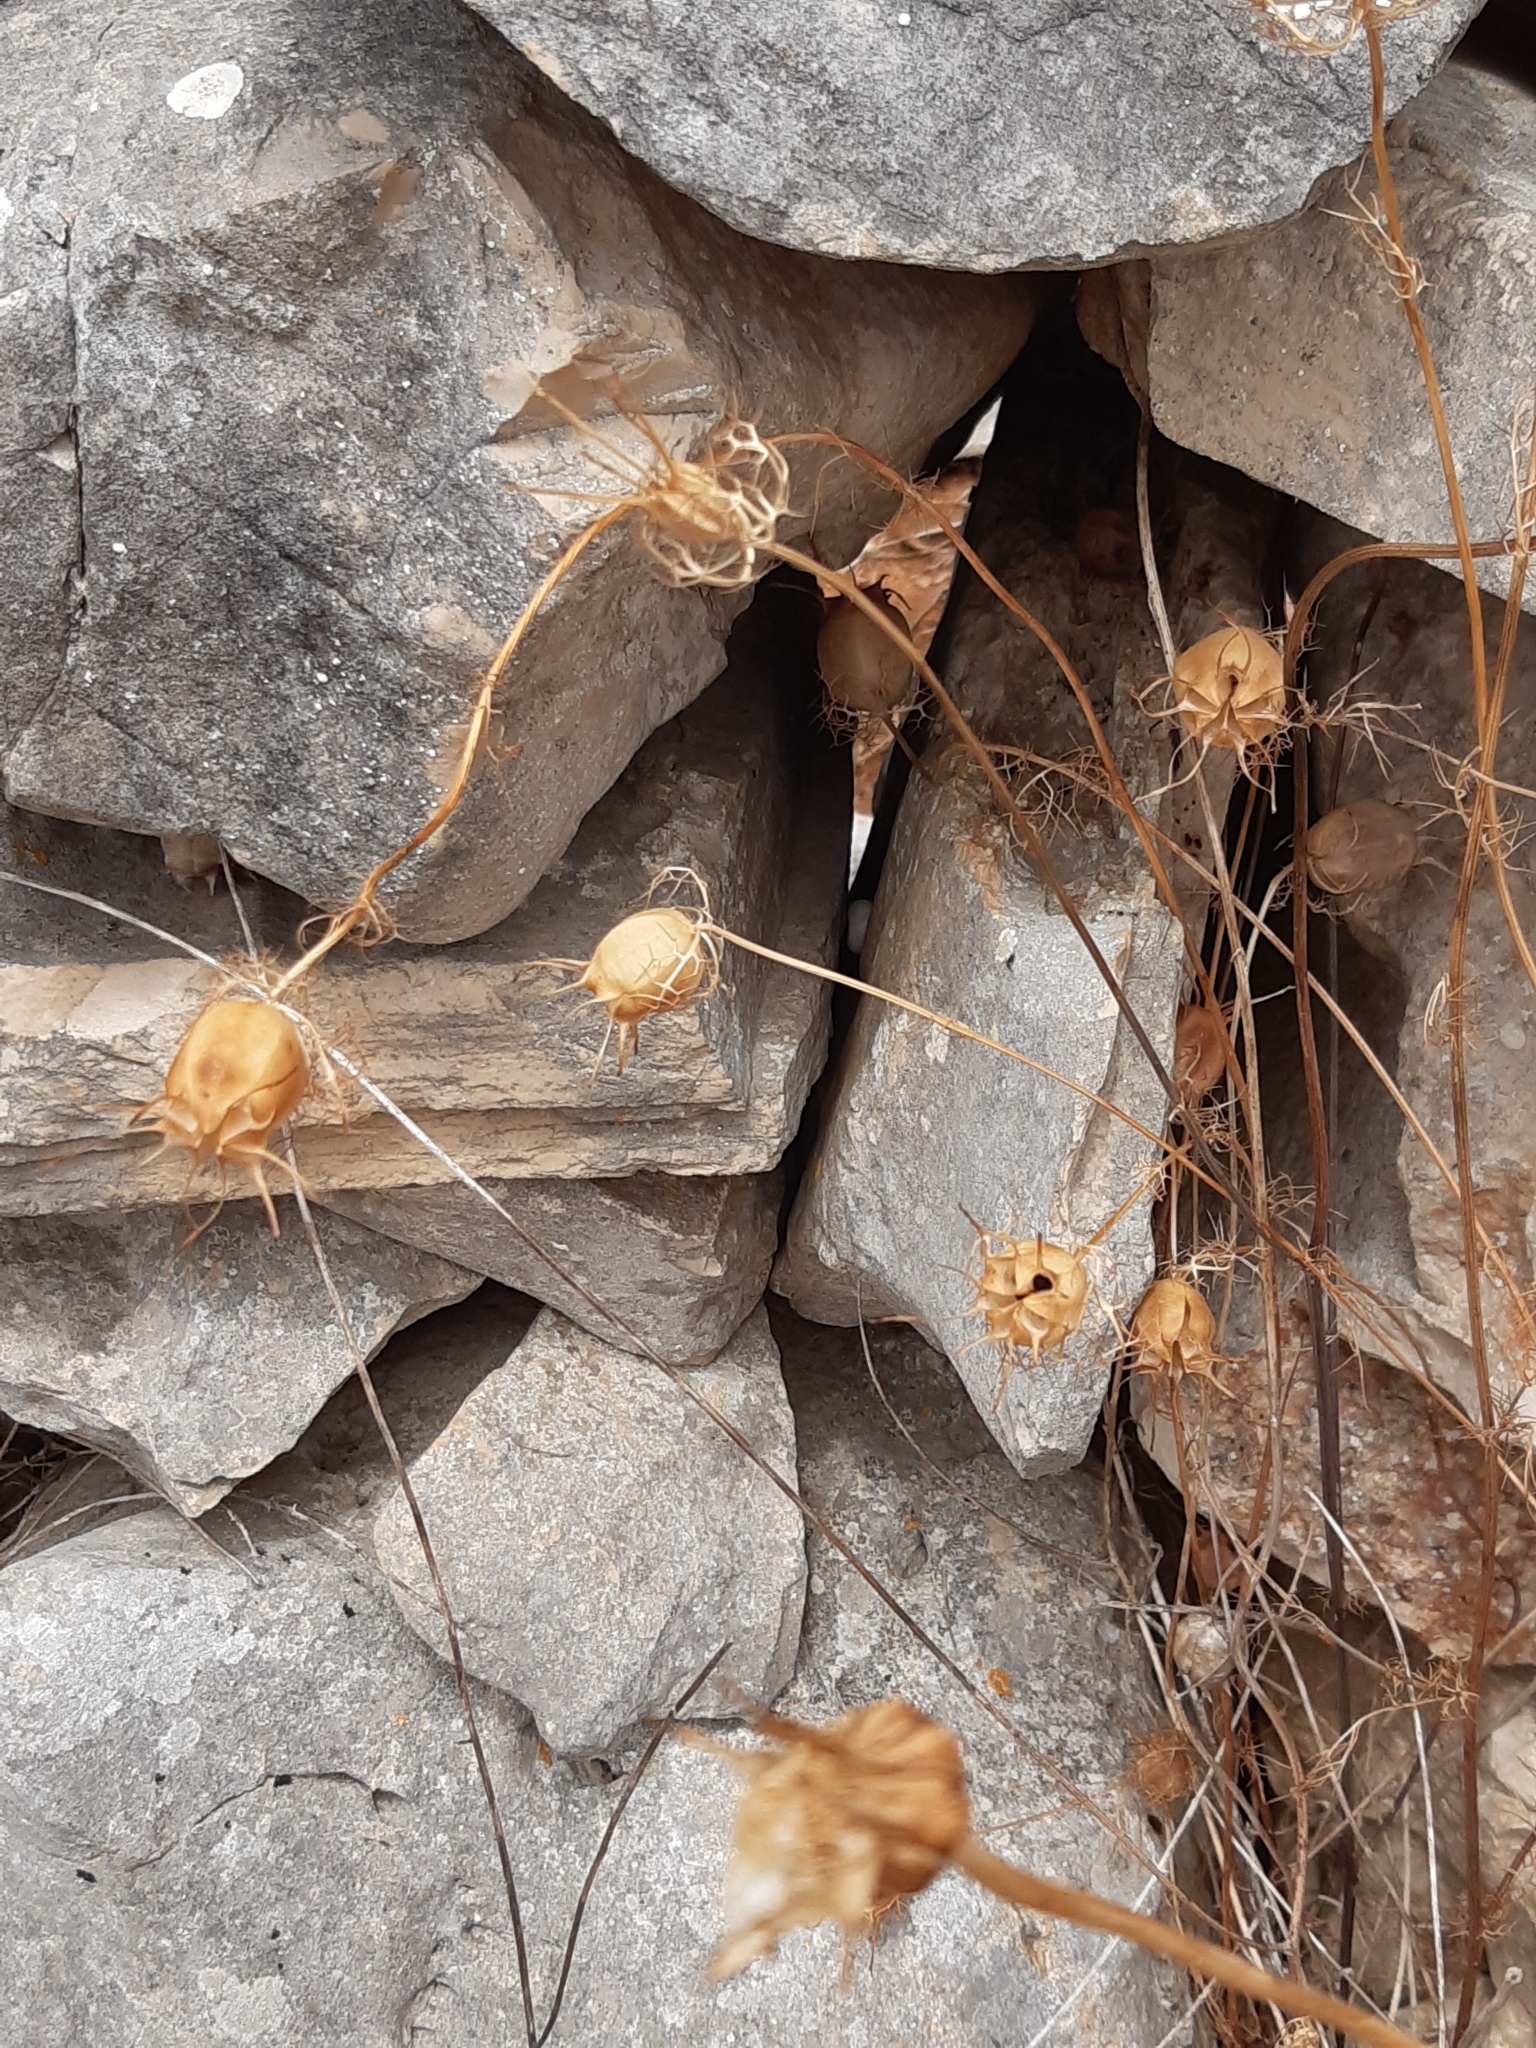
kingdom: Plantae
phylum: Tracheophyta
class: Magnoliopsida
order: Ranunculales
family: Ranunculaceae
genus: Nigella
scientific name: Nigella damascena
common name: Love-in-a-mist
